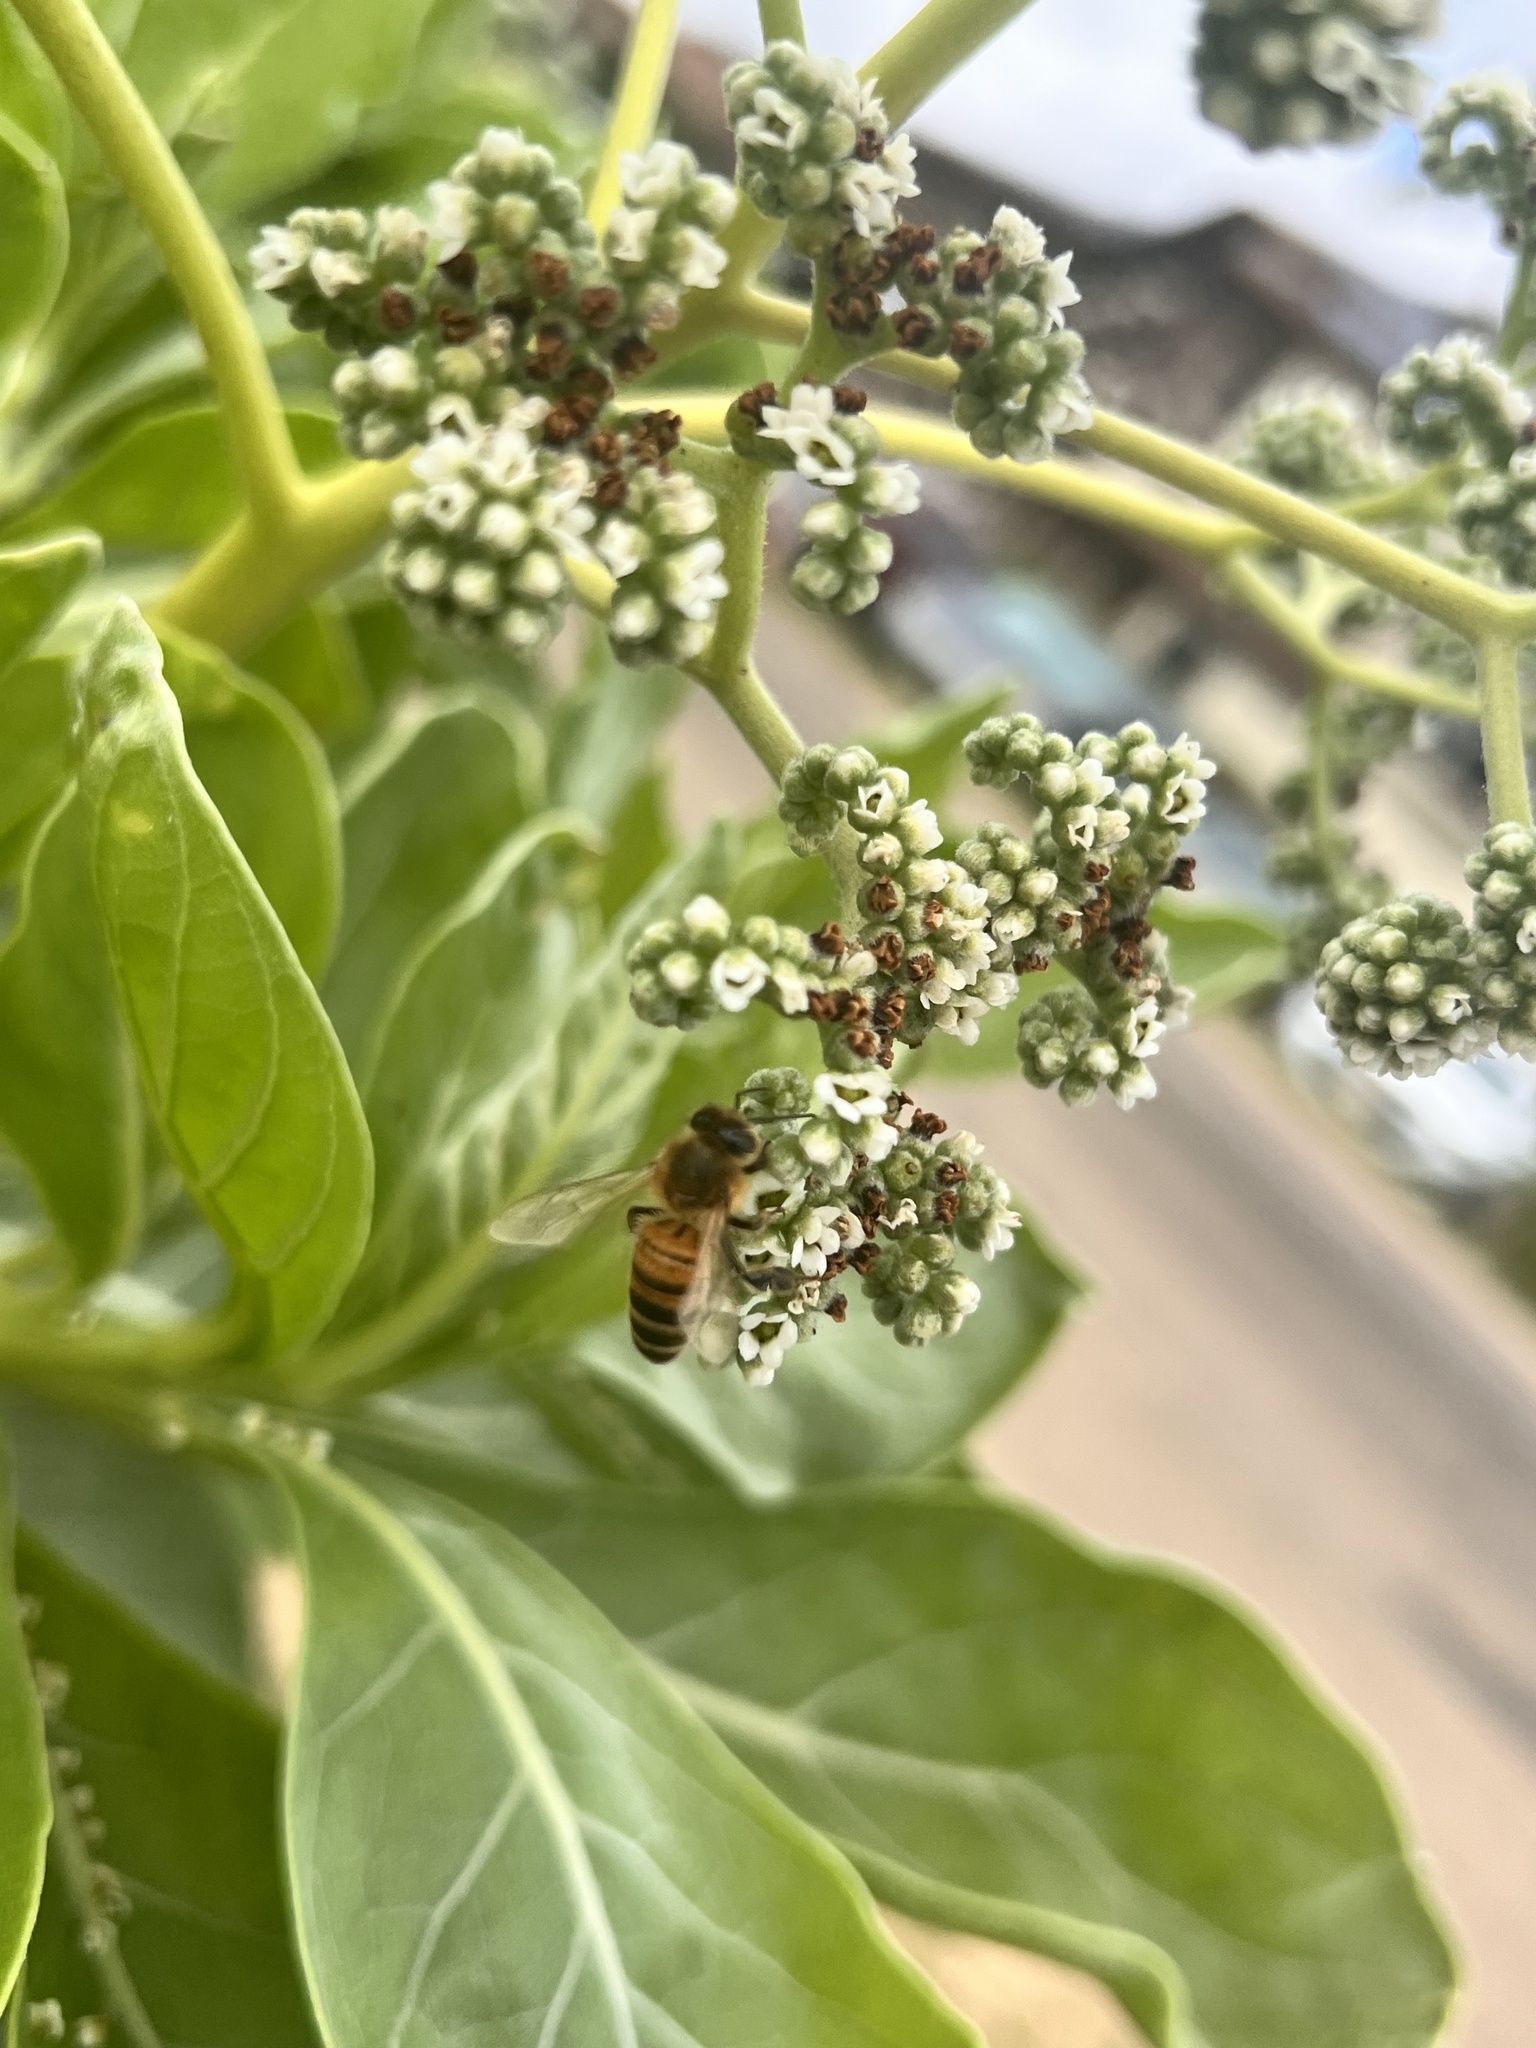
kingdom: Animalia
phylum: Arthropoda
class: Insecta
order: Hymenoptera
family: Apidae
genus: Apis
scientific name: Apis mellifera
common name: Honey bee
